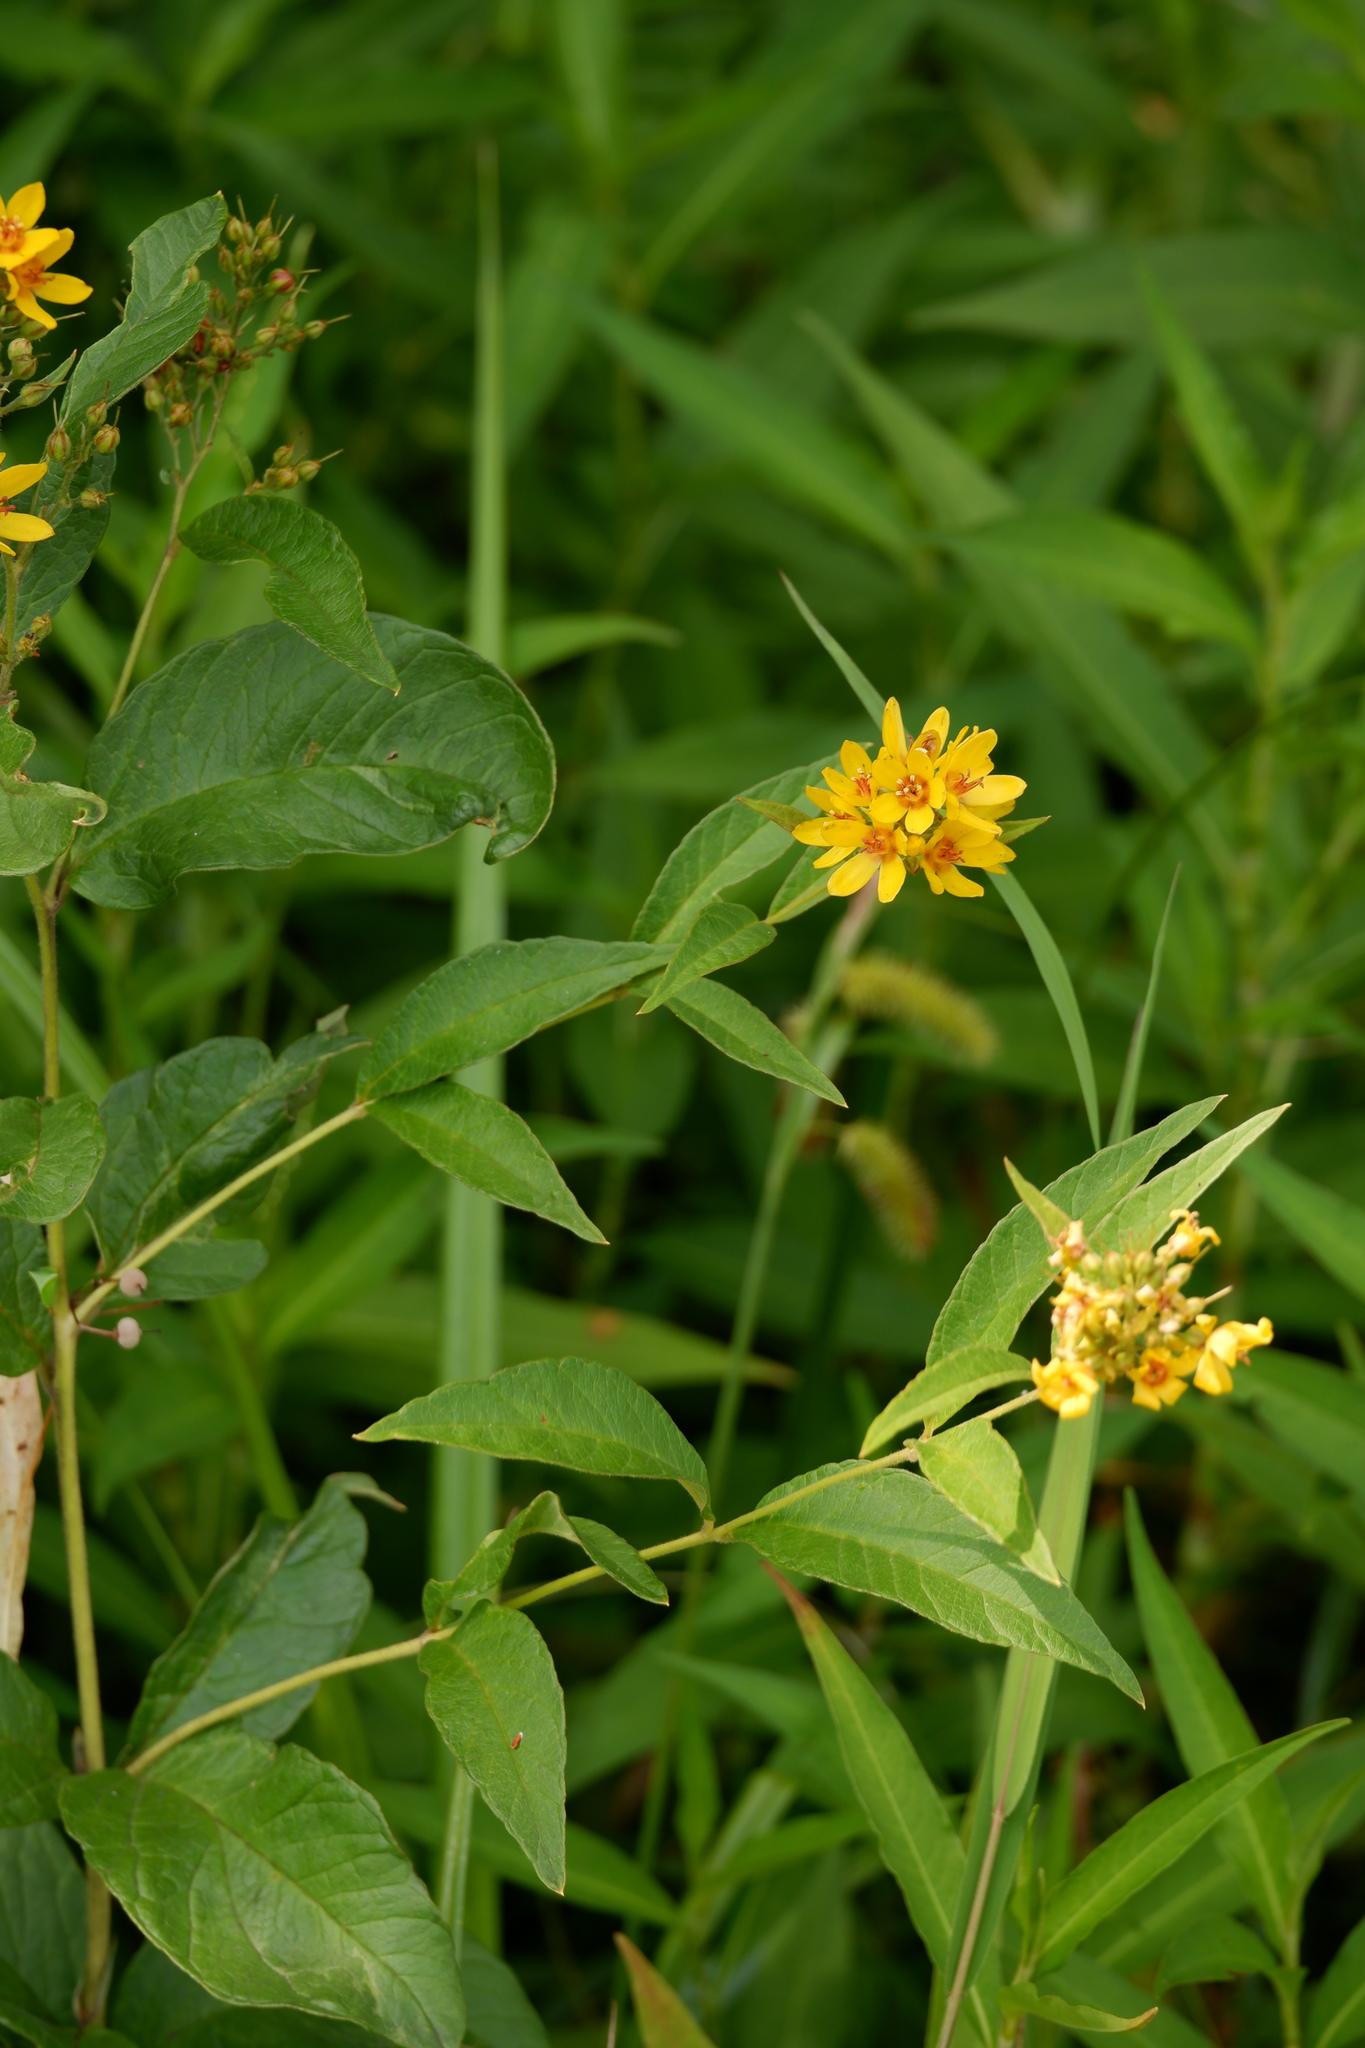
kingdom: Plantae
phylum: Tracheophyta
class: Magnoliopsida
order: Ericales
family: Primulaceae
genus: Lysimachia
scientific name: Lysimachia vulgaris
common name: Yellow loosestrife
